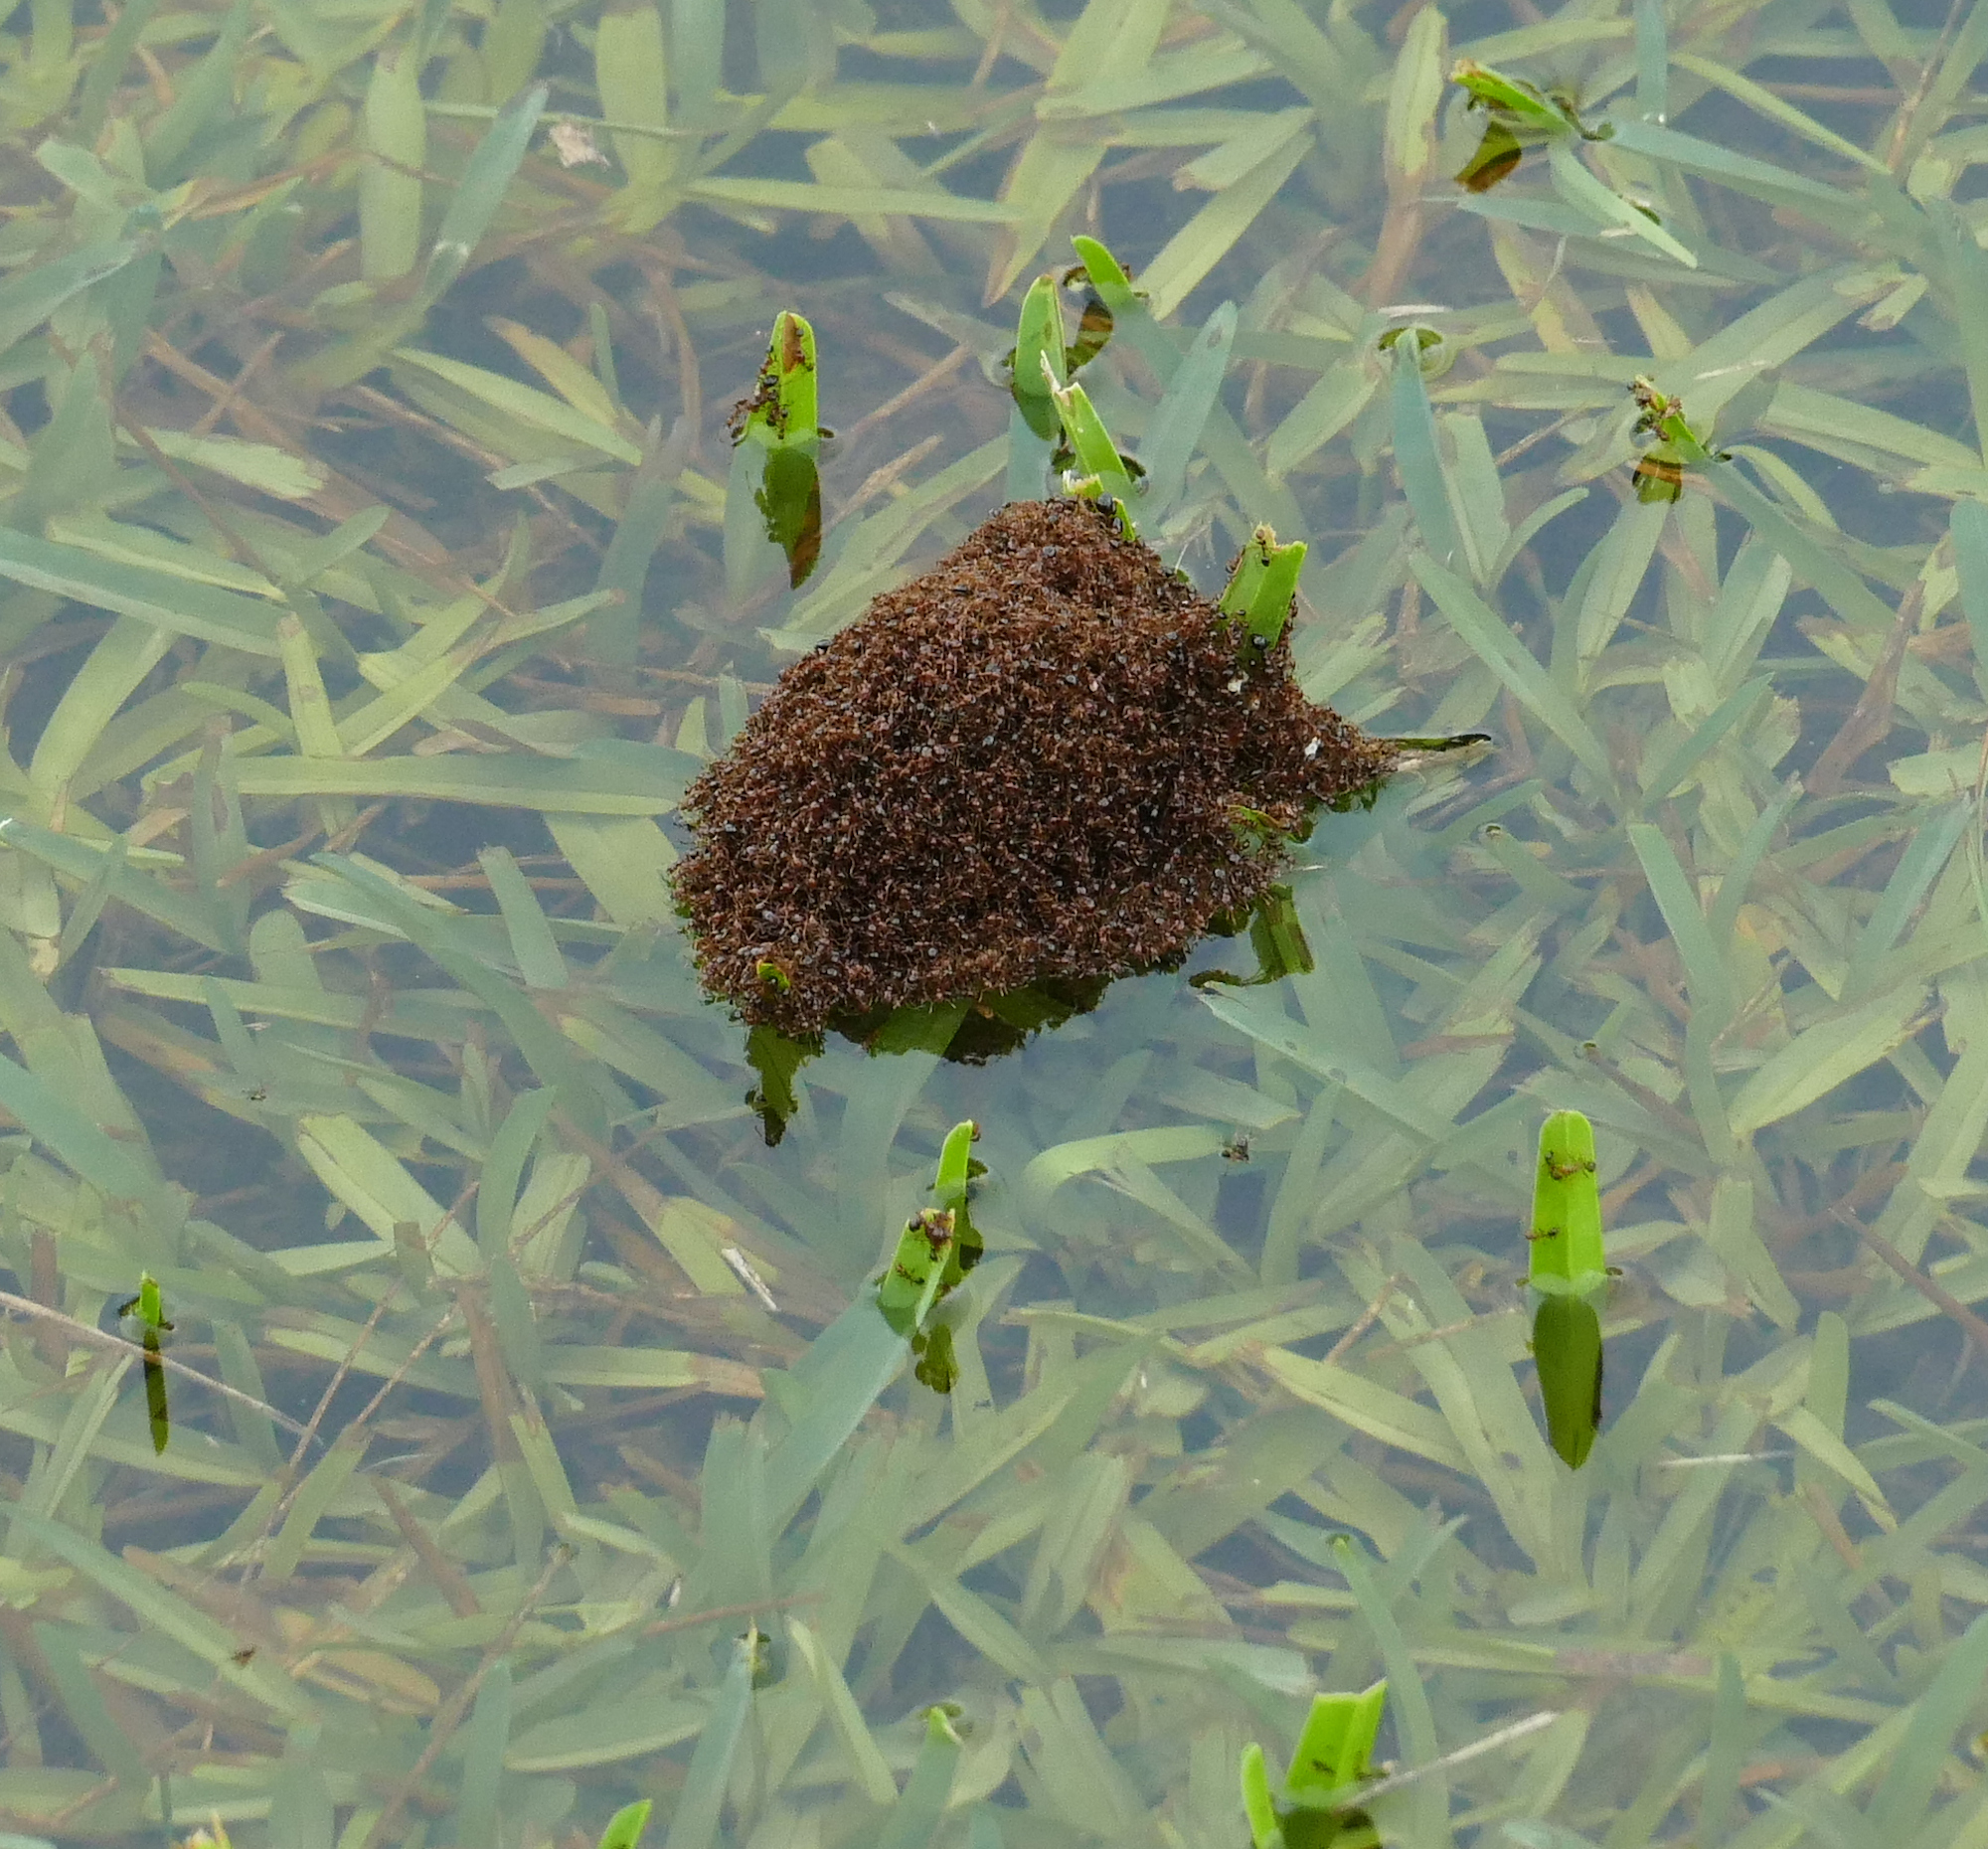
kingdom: Animalia
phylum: Arthropoda
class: Insecta
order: Hymenoptera
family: Formicidae
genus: Solenopsis
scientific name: Solenopsis invicta
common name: Red imported fire ant
